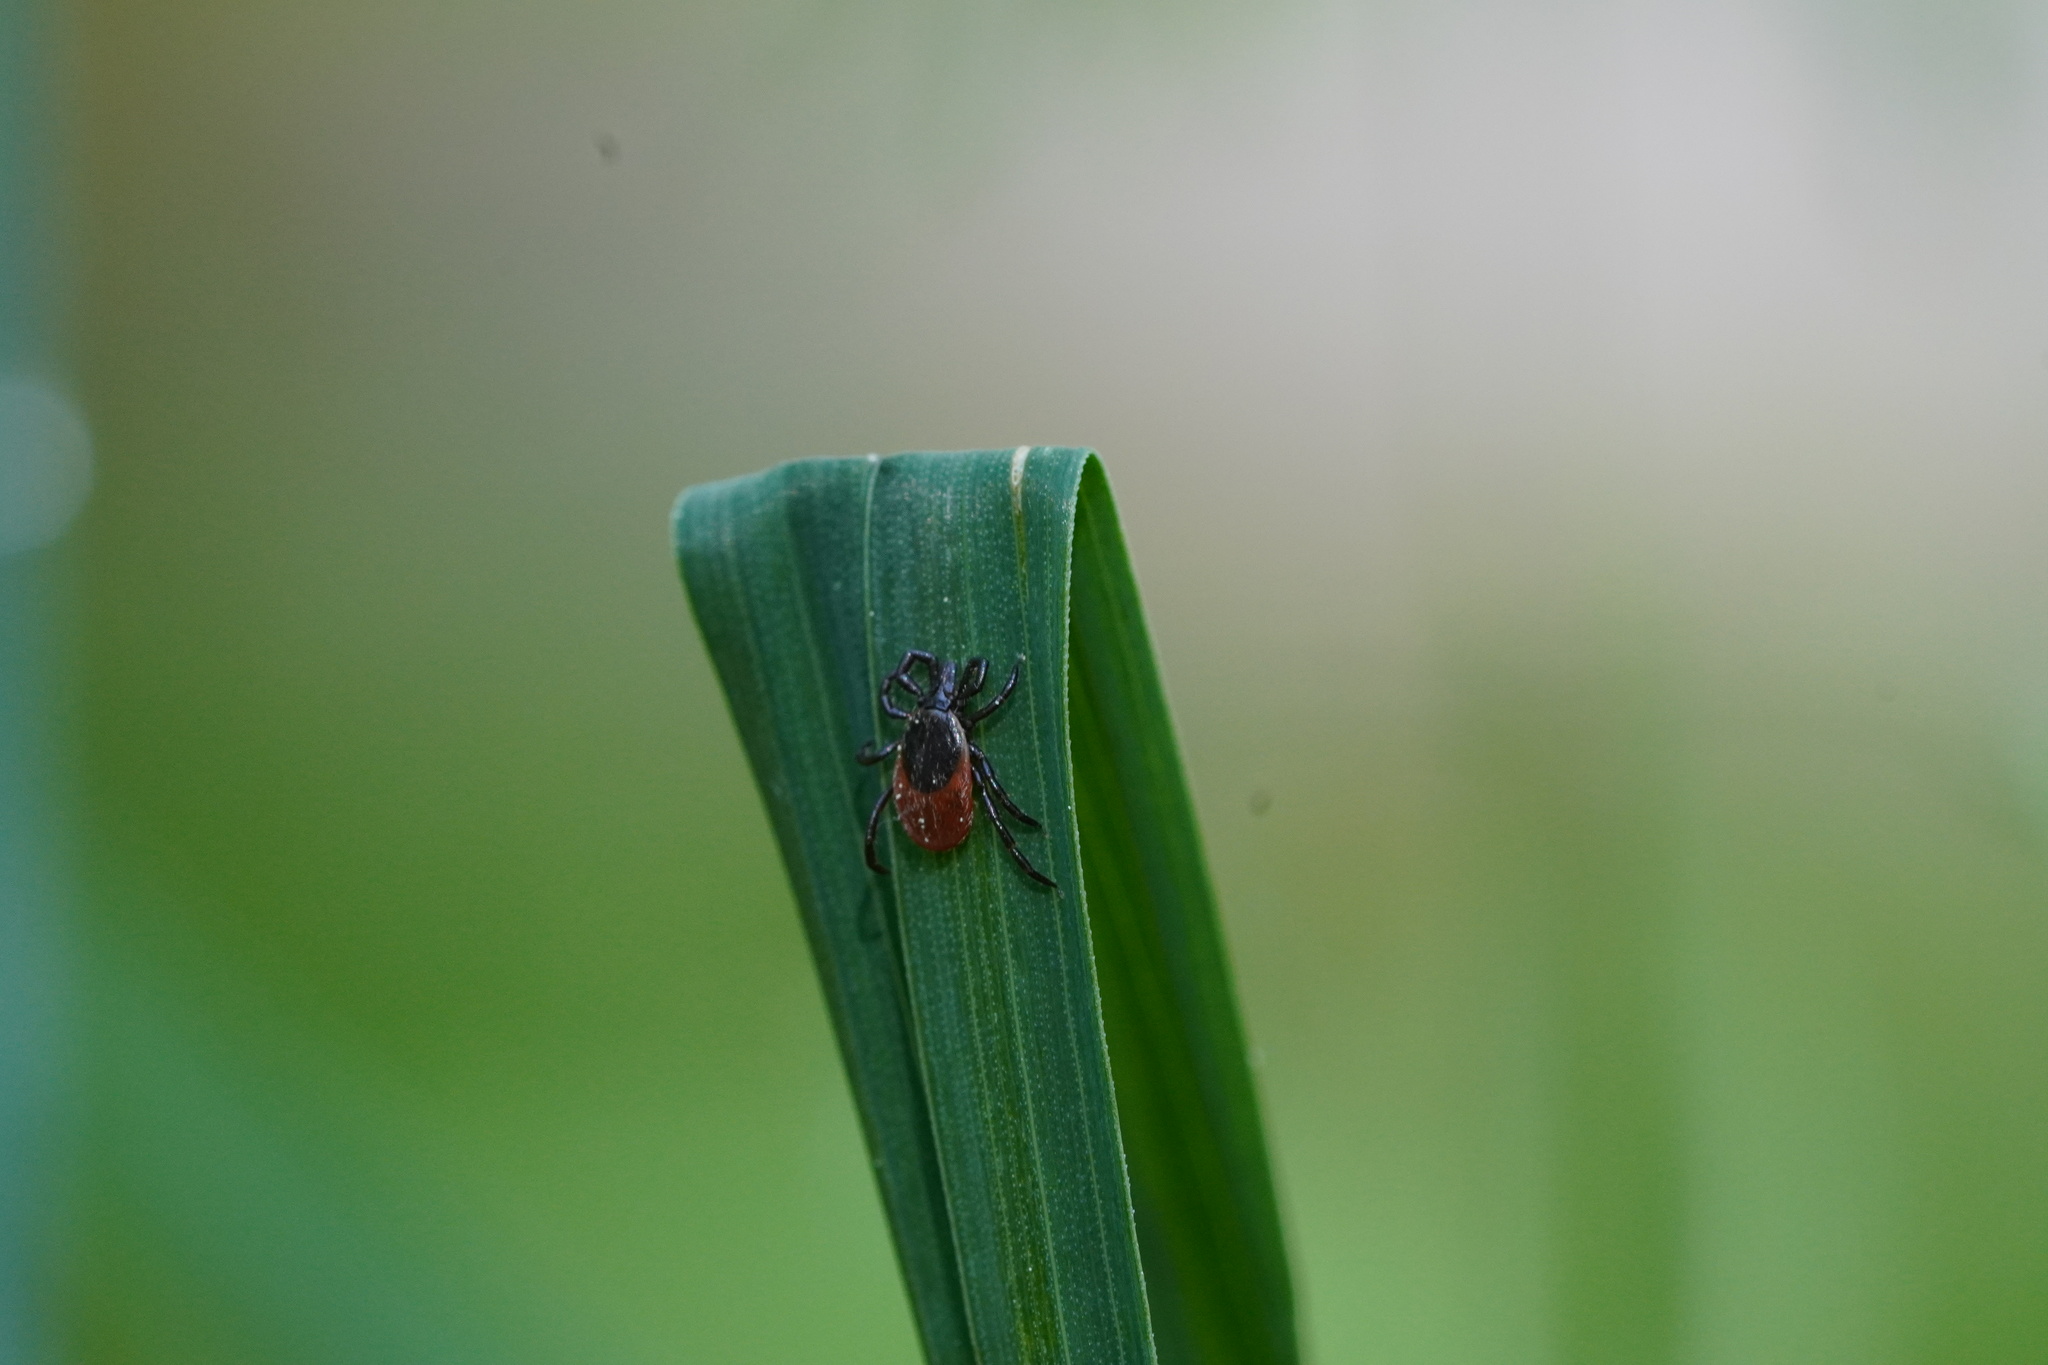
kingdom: Animalia
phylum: Arthropoda
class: Arachnida
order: Ixodida
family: Ixodidae
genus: Ixodes
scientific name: Ixodes ricinus
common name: Castor bean tick
